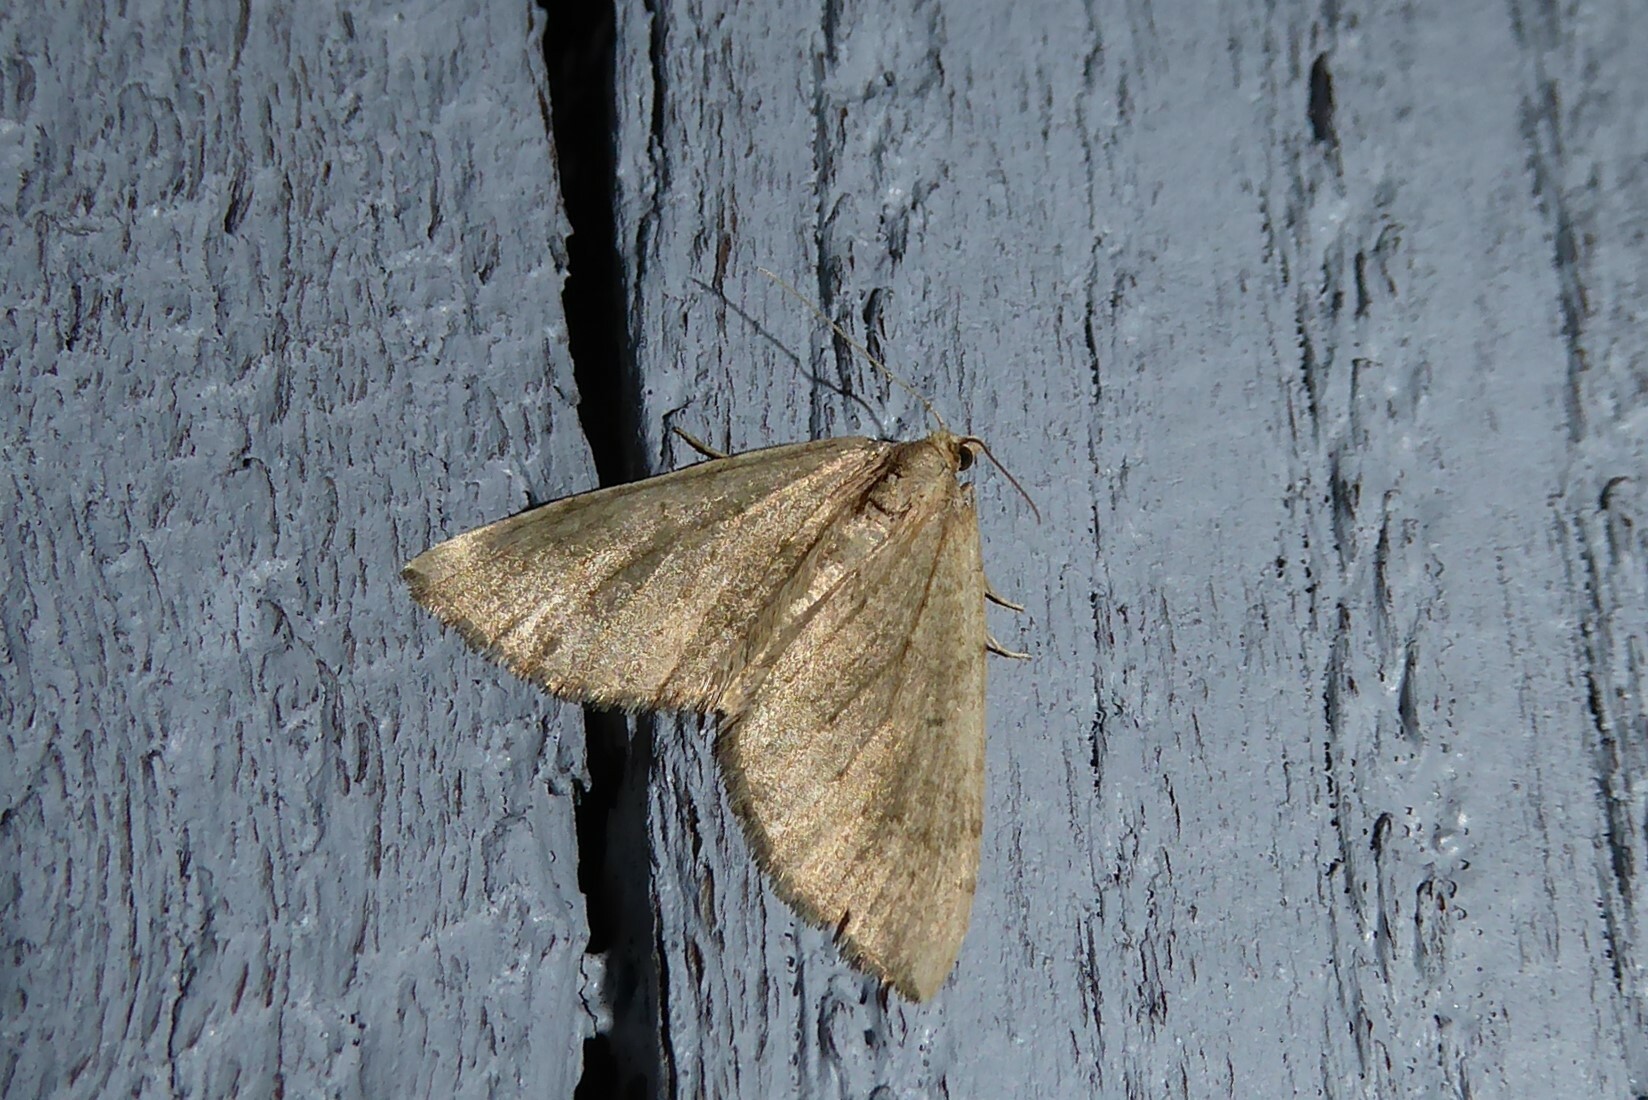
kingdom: Animalia
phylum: Arthropoda
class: Insecta
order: Lepidoptera
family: Geometridae
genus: Epyaxa
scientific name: Epyaxa rosearia
